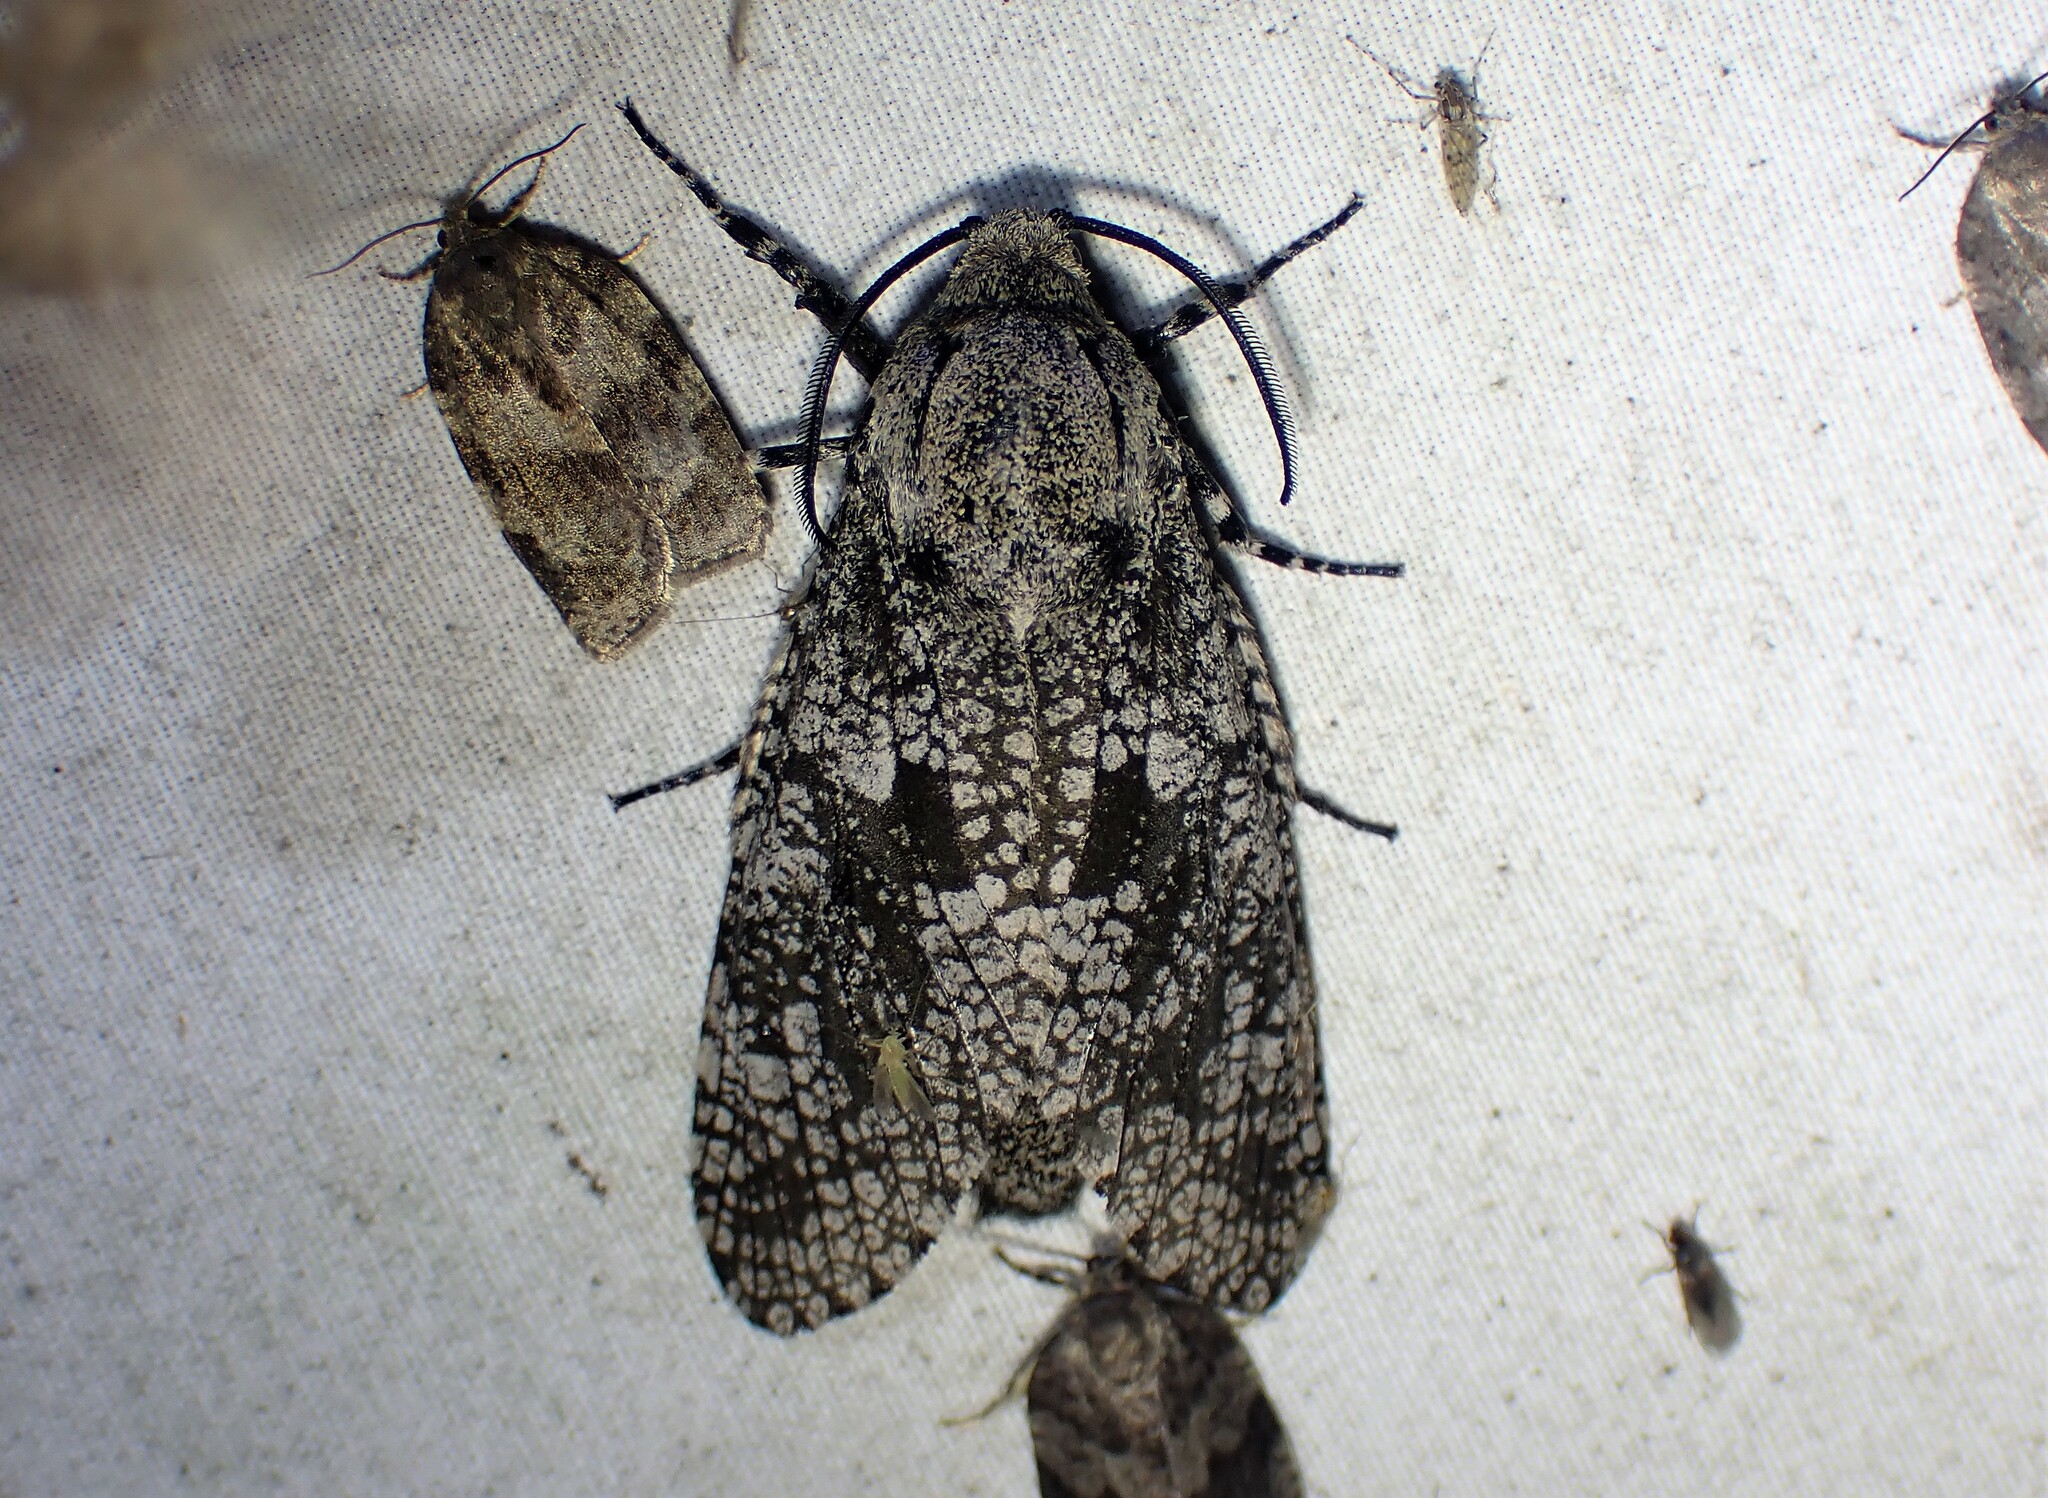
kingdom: Animalia
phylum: Arthropoda
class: Insecta
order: Lepidoptera
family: Cossidae
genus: Prionoxystus
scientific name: Prionoxystus robiniae
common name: Carpenterworm
